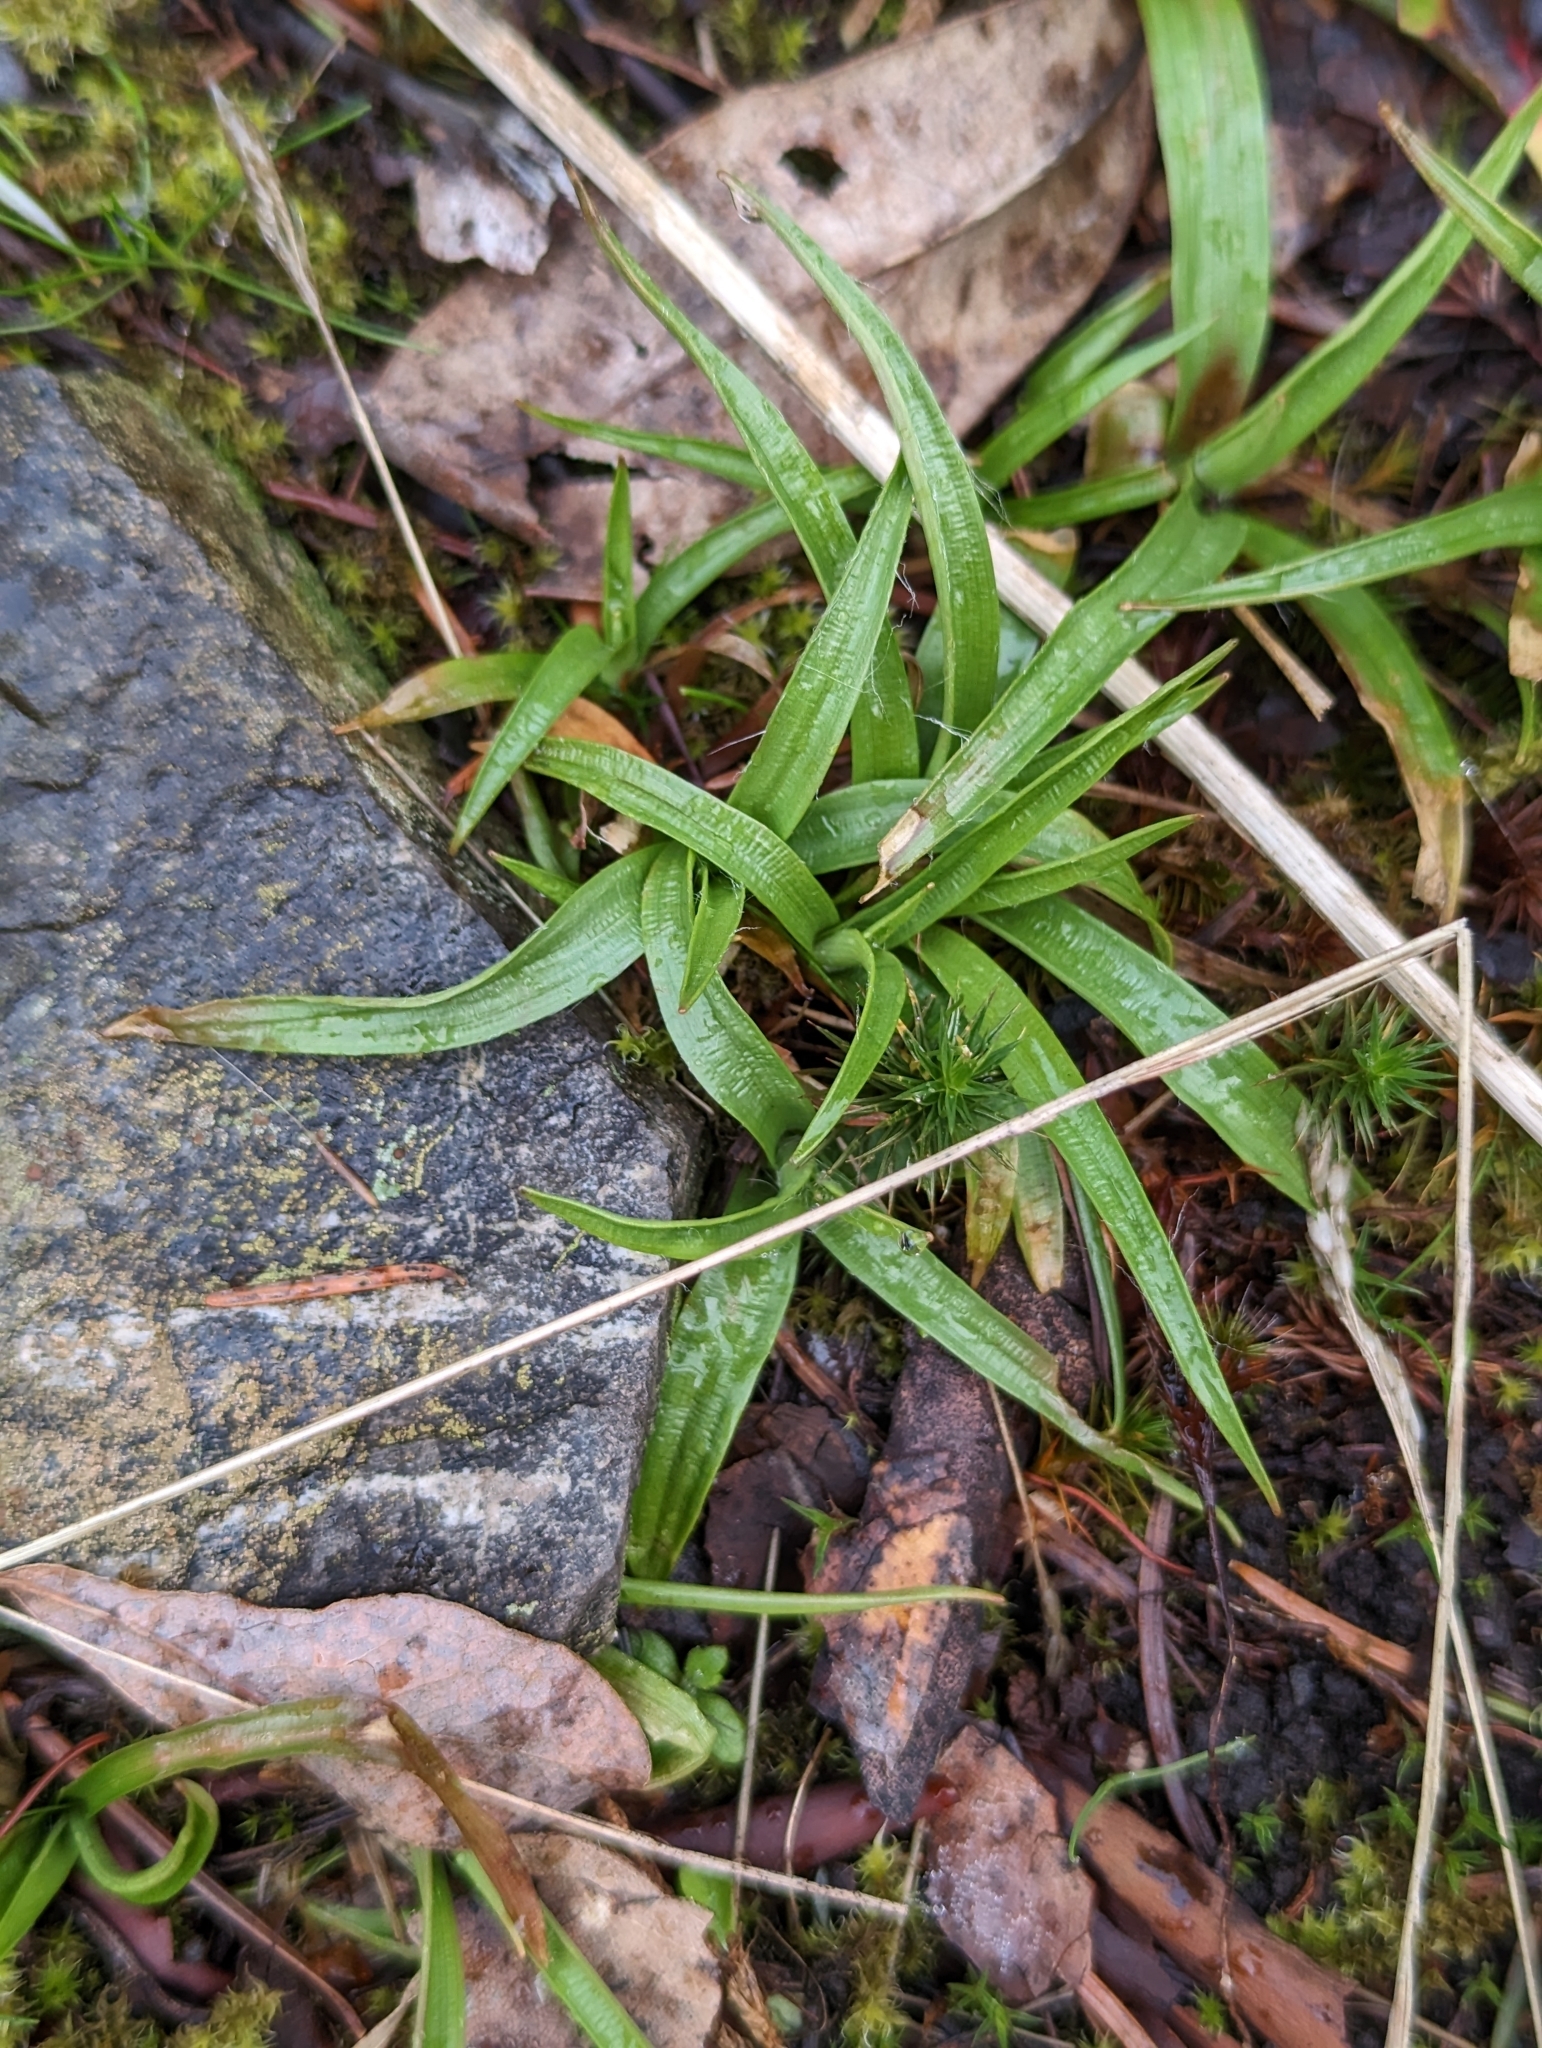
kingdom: Plantae
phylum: Tracheophyta
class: Liliopsida
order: Poales
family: Juncaceae
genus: Luzula
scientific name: Luzula comosa
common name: Pacific woodrush
